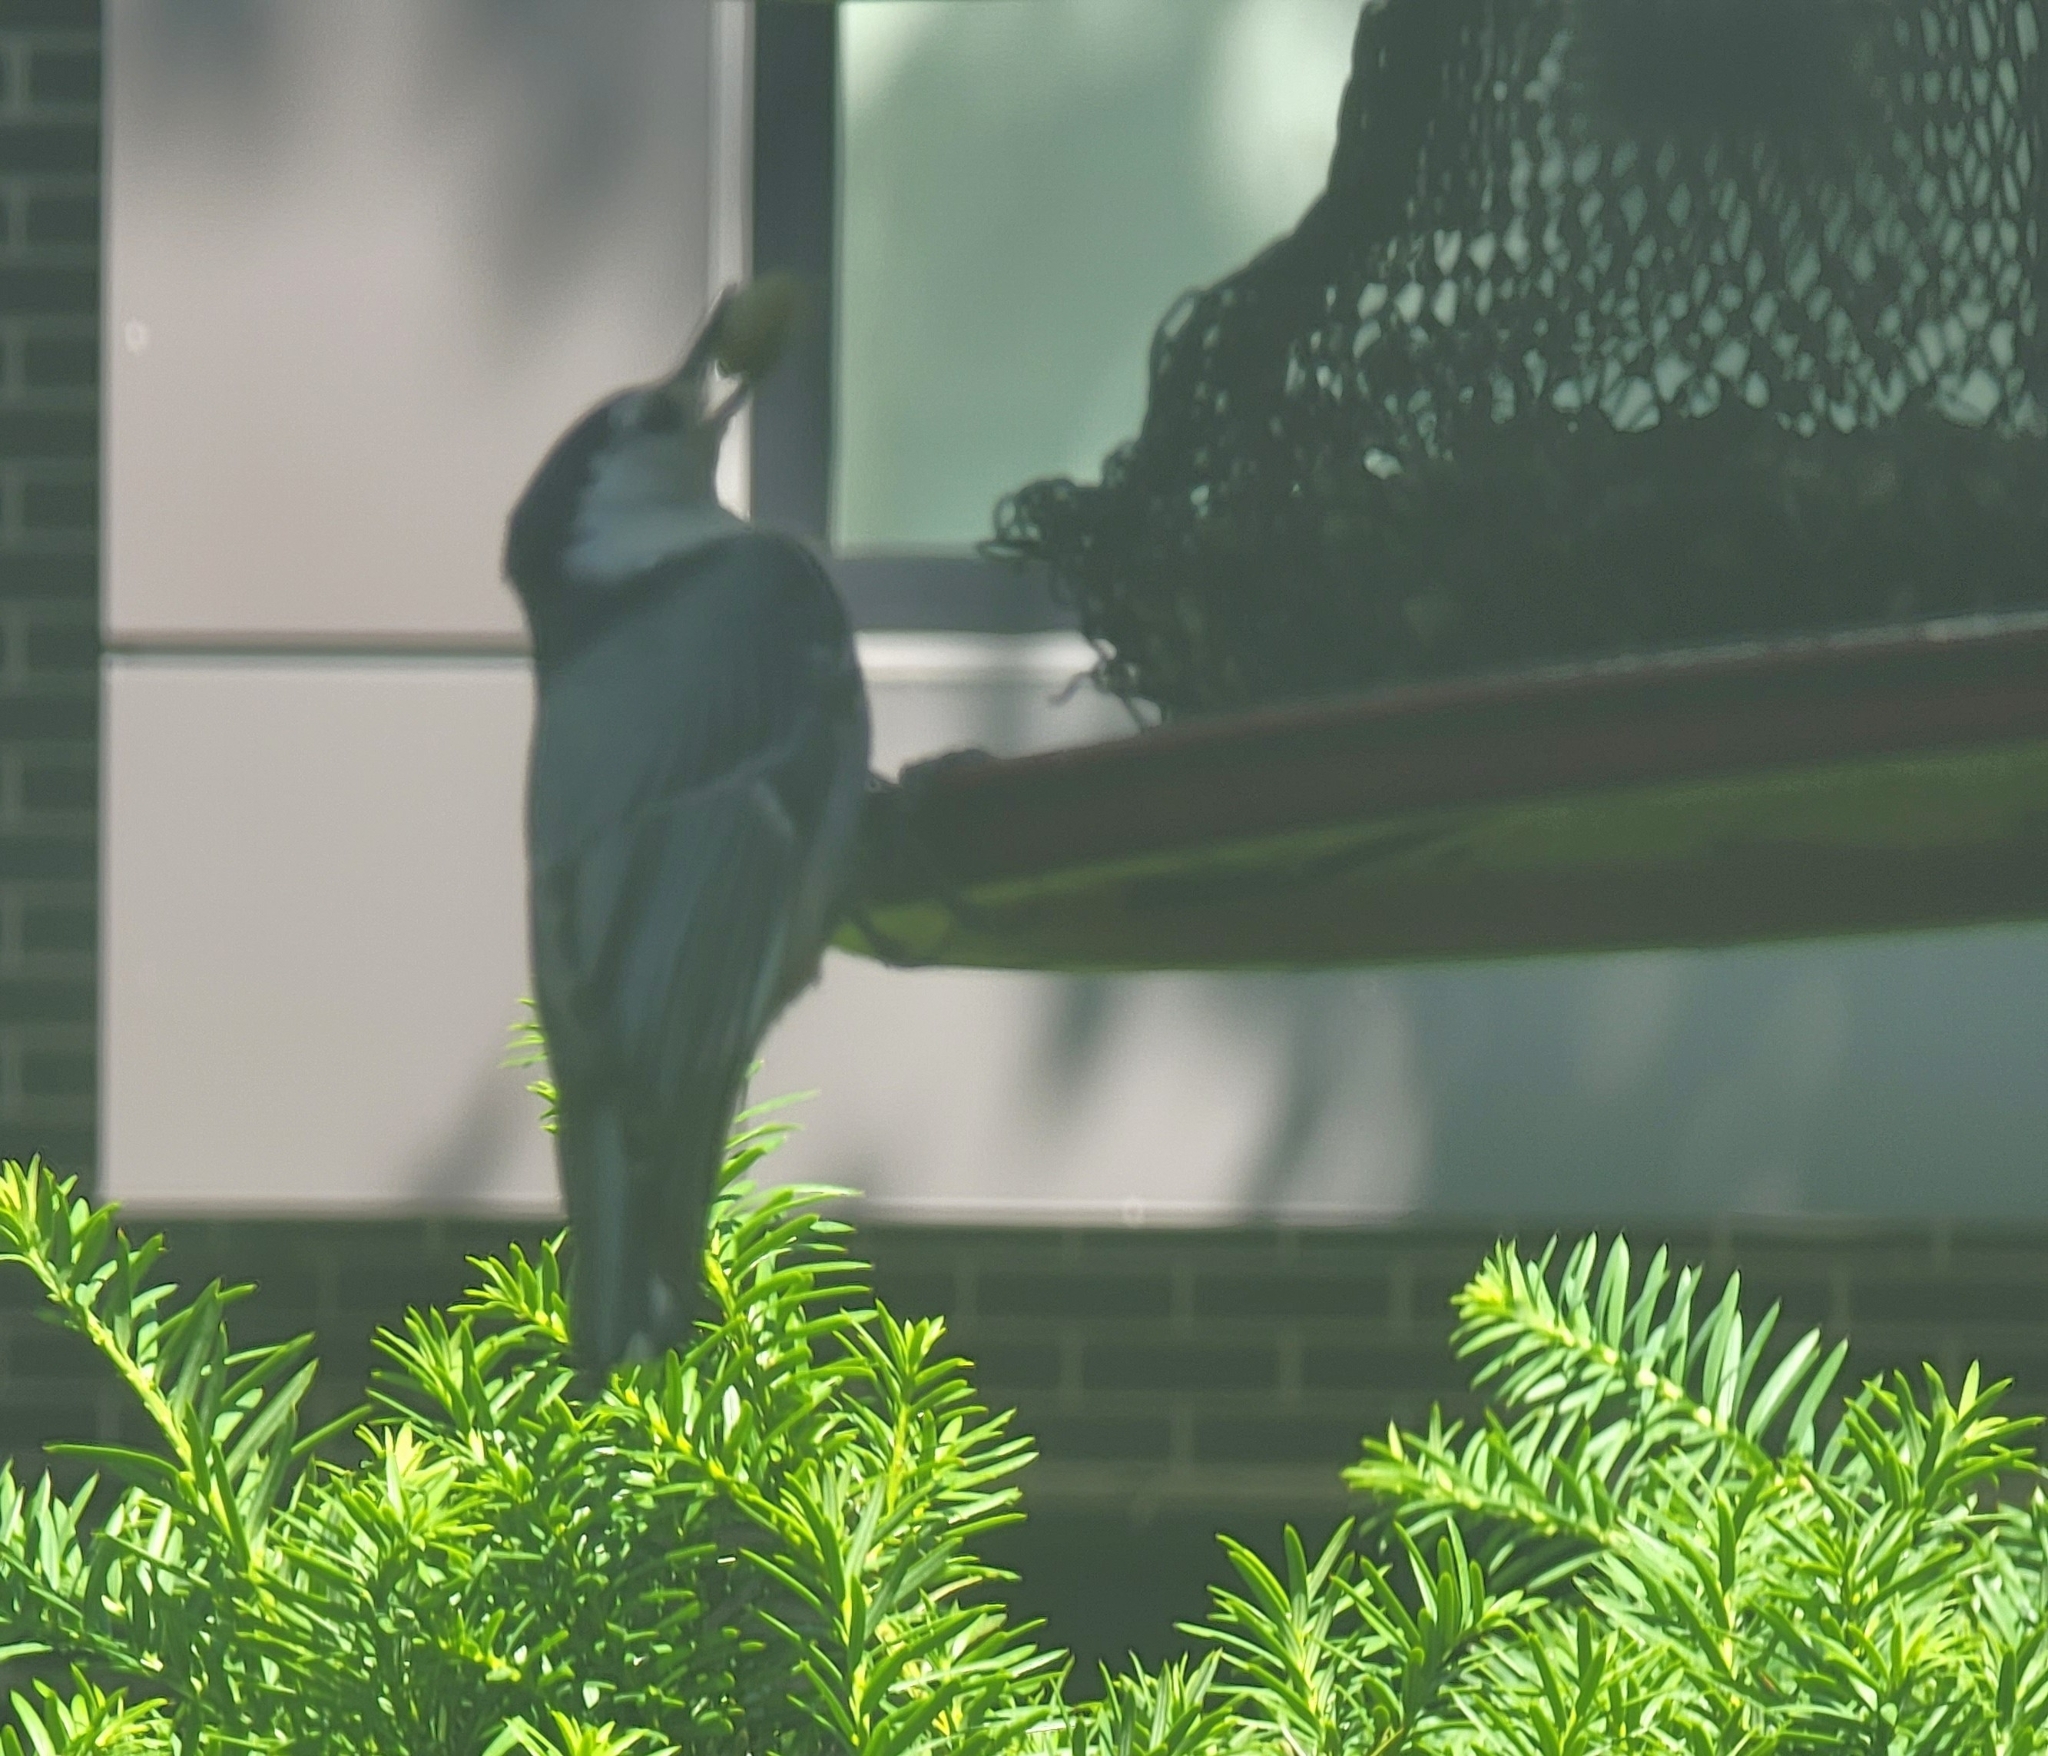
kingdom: Animalia
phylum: Chordata
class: Aves
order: Passeriformes
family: Sittidae
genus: Sitta
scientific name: Sitta carolinensis
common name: White-breasted nuthatch
